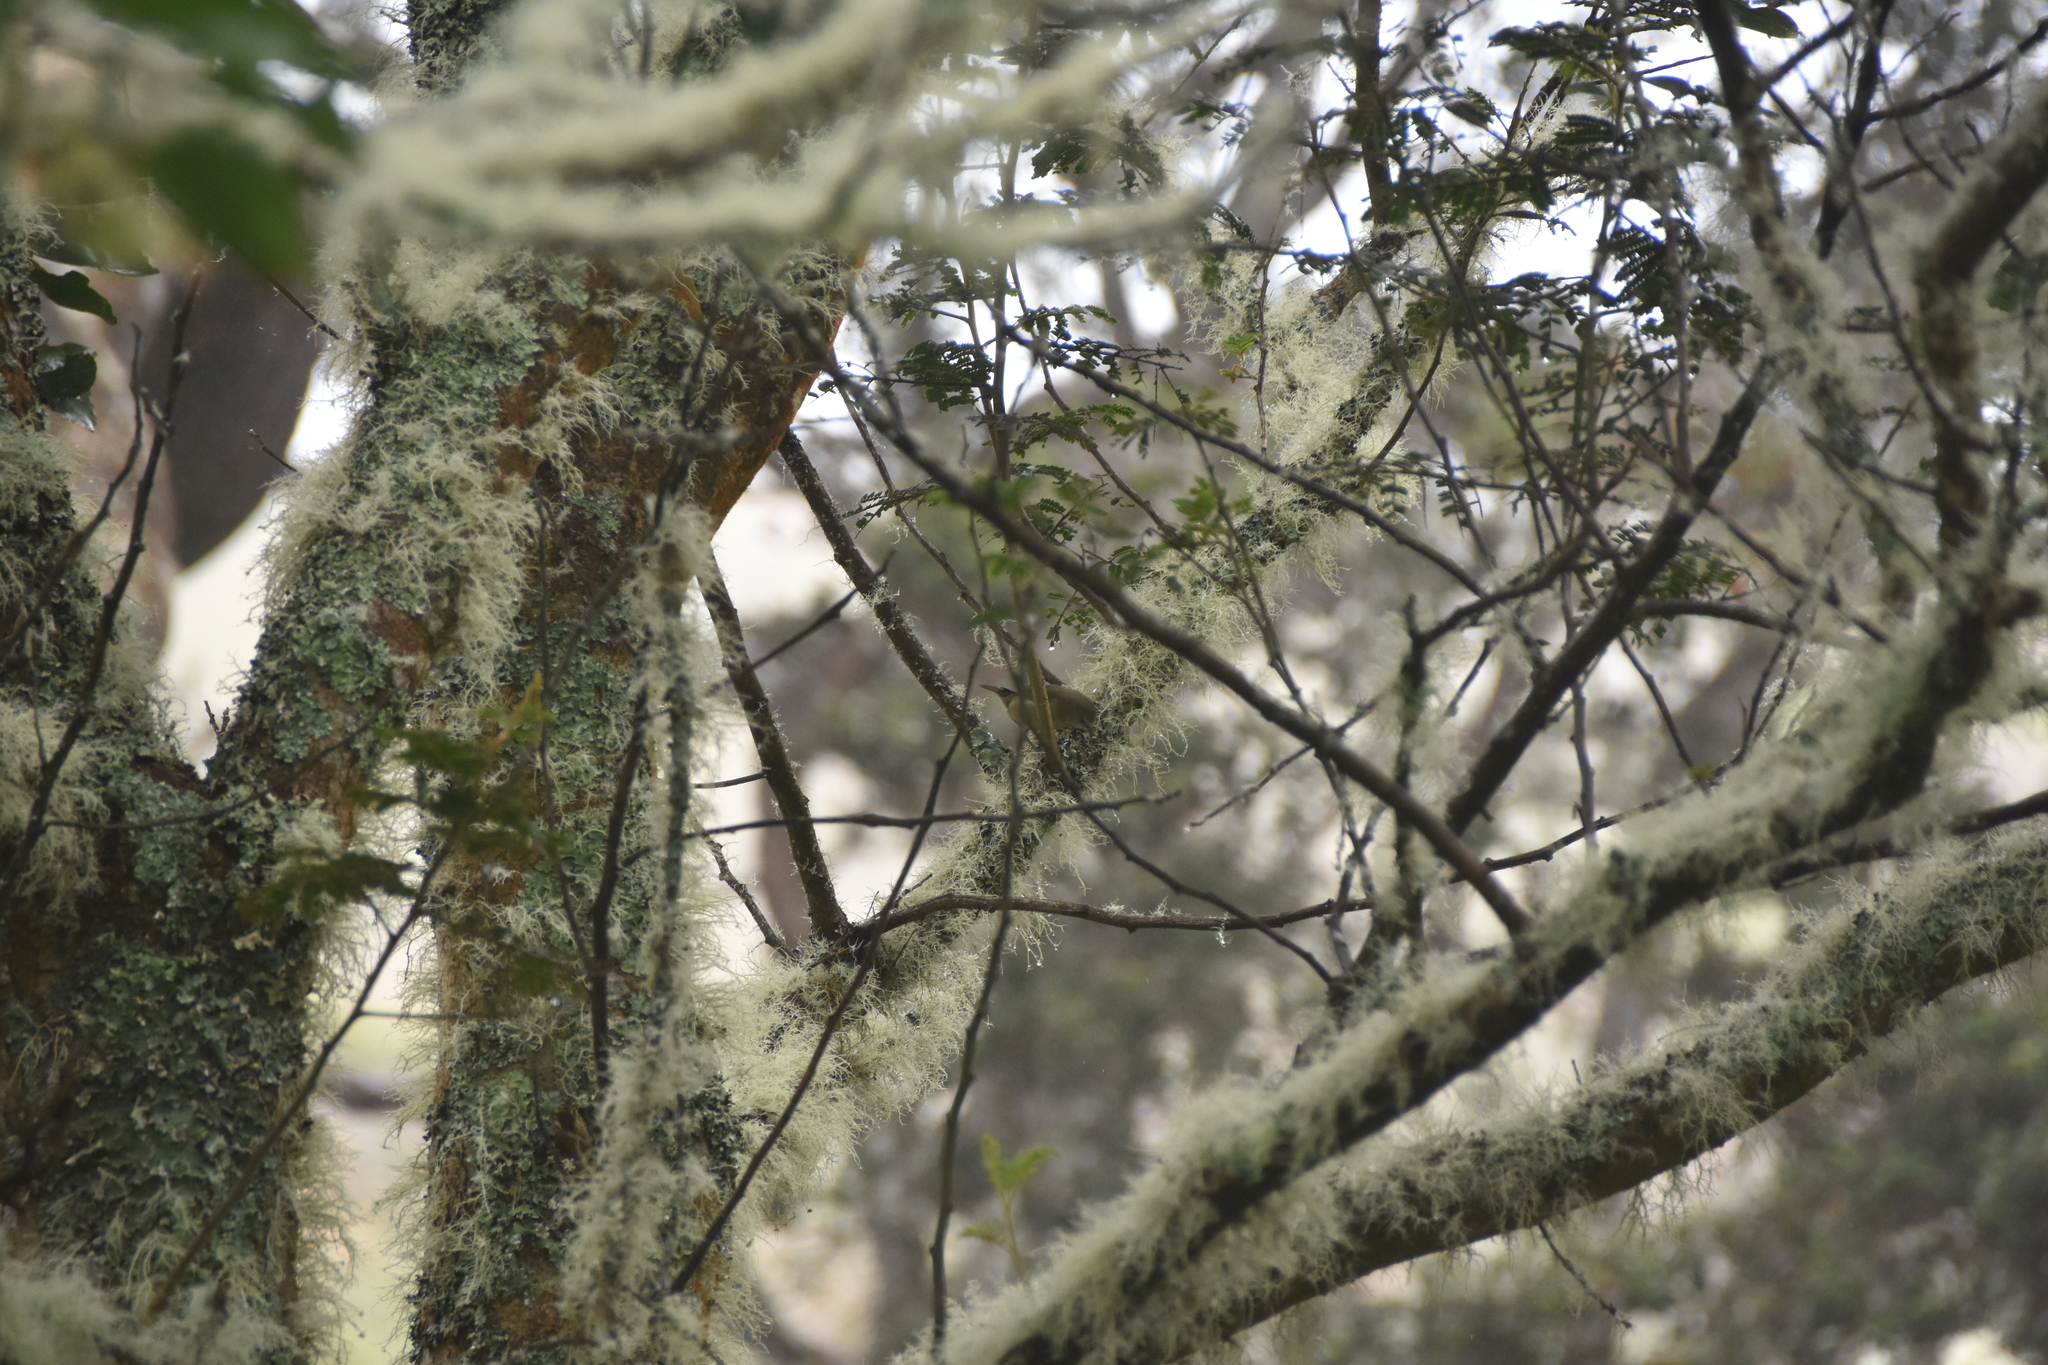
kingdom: Animalia
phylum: Chordata
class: Aves
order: Passeriformes
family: Fringillidae
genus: Loxops
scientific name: Loxops mana
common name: Hawaii creeper
